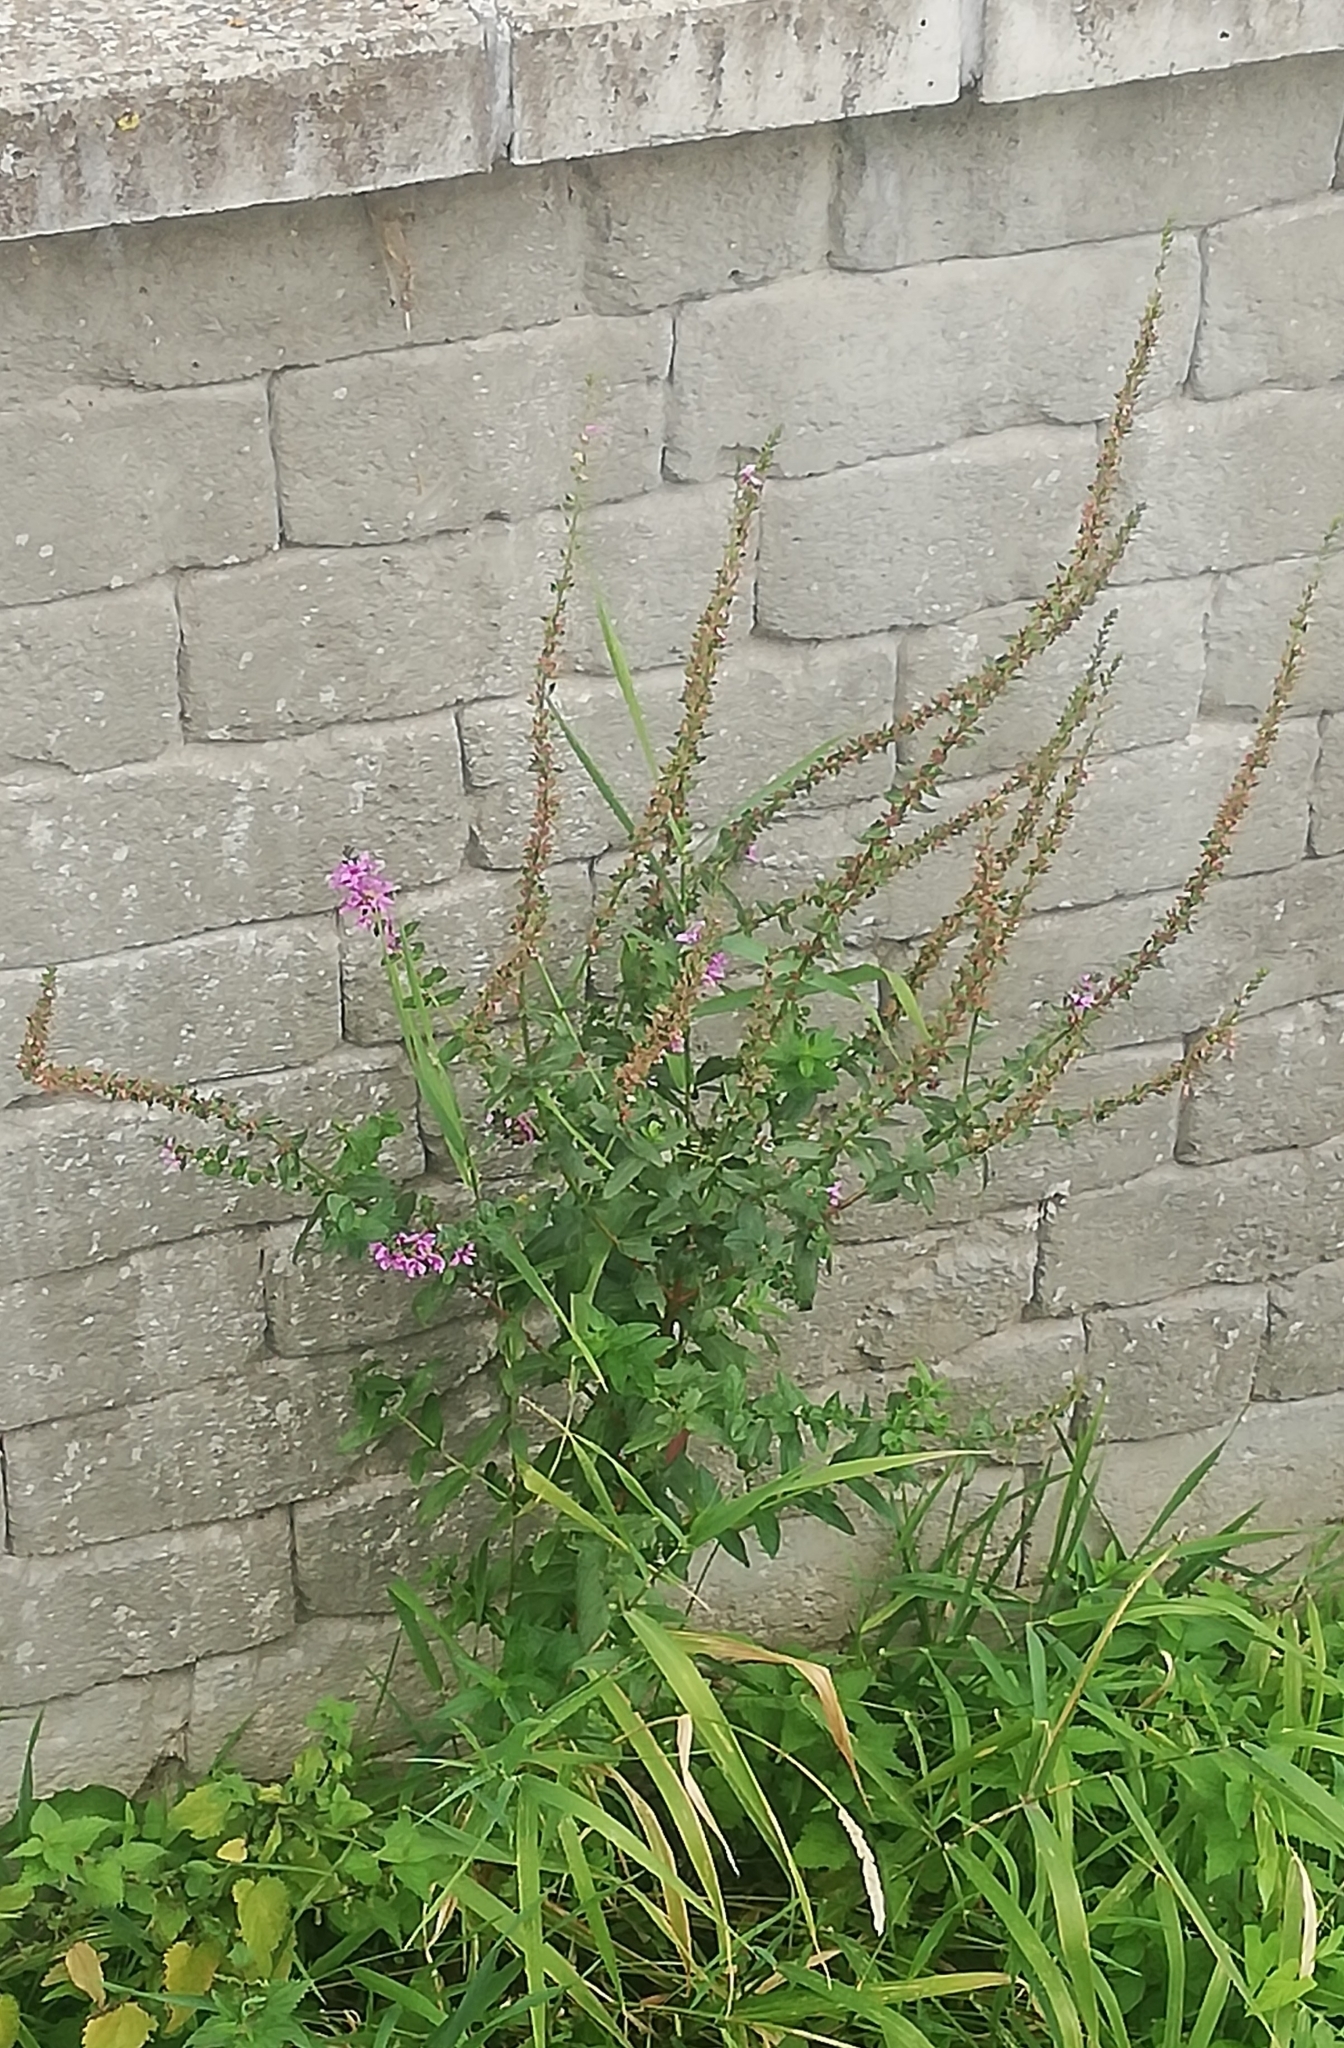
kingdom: Plantae
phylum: Tracheophyta
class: Magnoliopsida
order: Myrtales
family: Lythraceae
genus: Lythrum
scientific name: Lythrum salicaria
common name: Purple loosestrife
